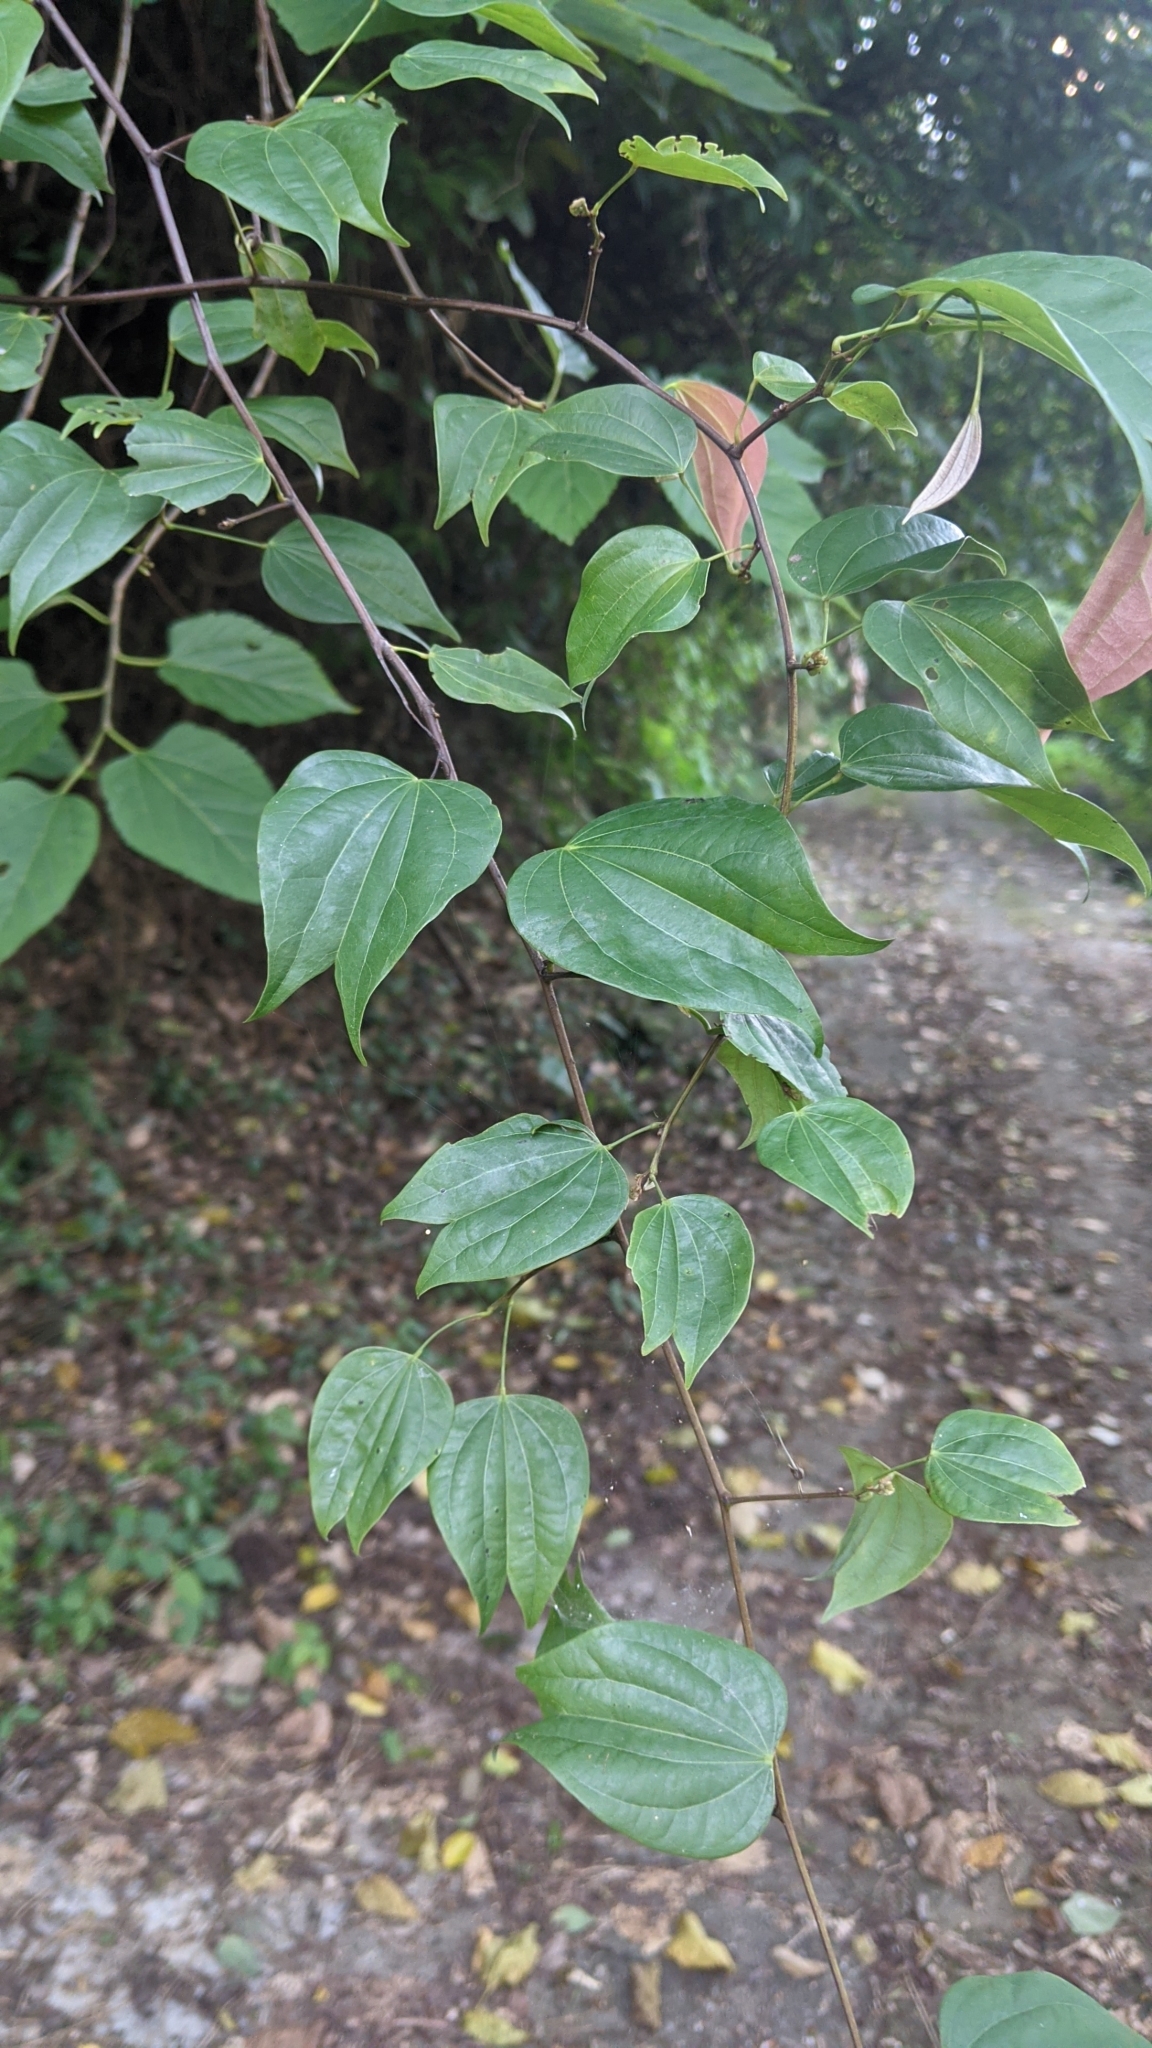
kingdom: Plantae
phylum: Tracheophyta
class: Magnoliopsida
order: Fabales
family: Fabaceae
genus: Phanera
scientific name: Phanera championii
